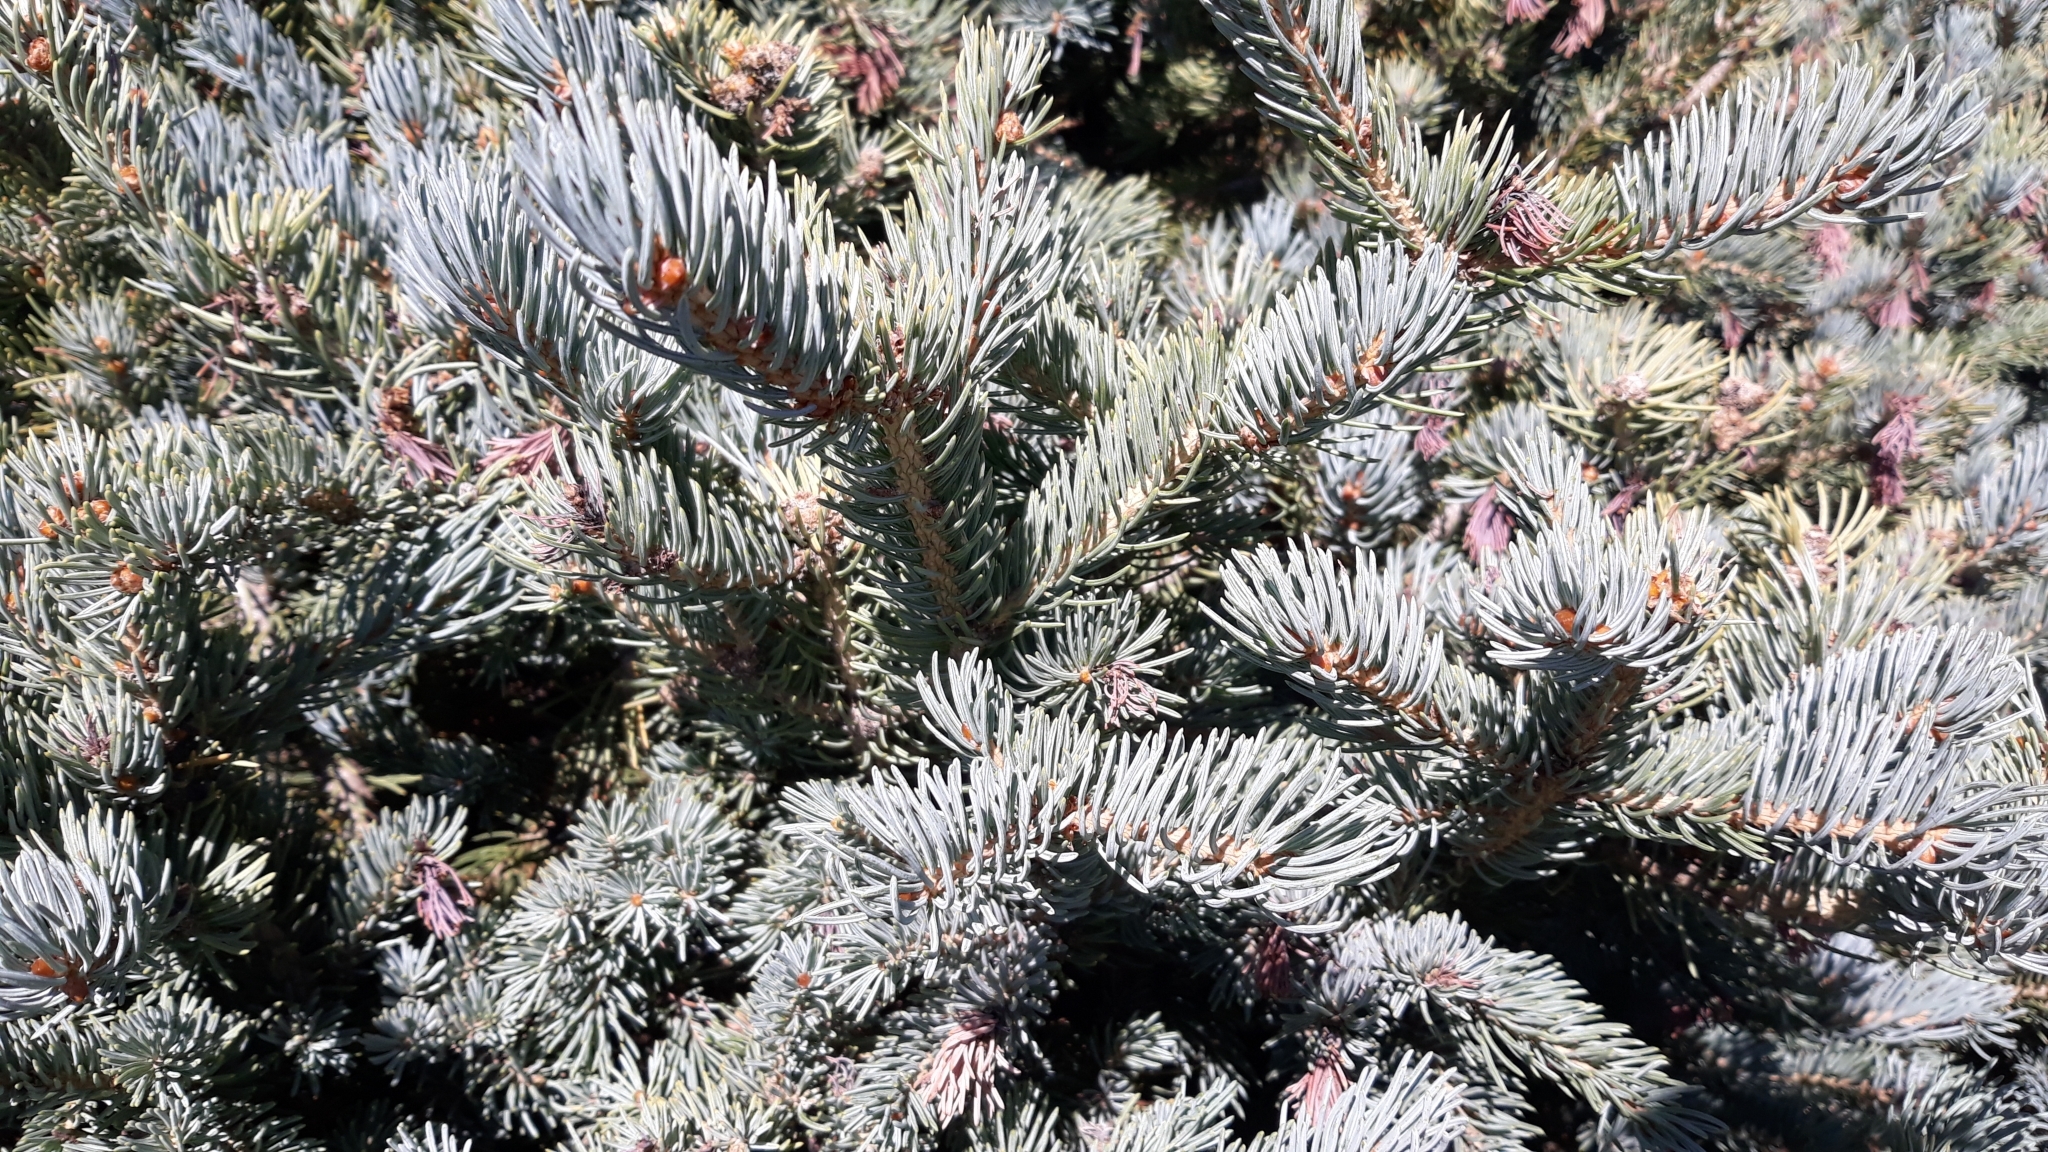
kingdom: Plantae
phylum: Tracheophyta
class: Pinopsida
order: Pinales
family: Pinaceae
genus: Picea
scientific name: Picea pungens
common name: Colorado spruce
